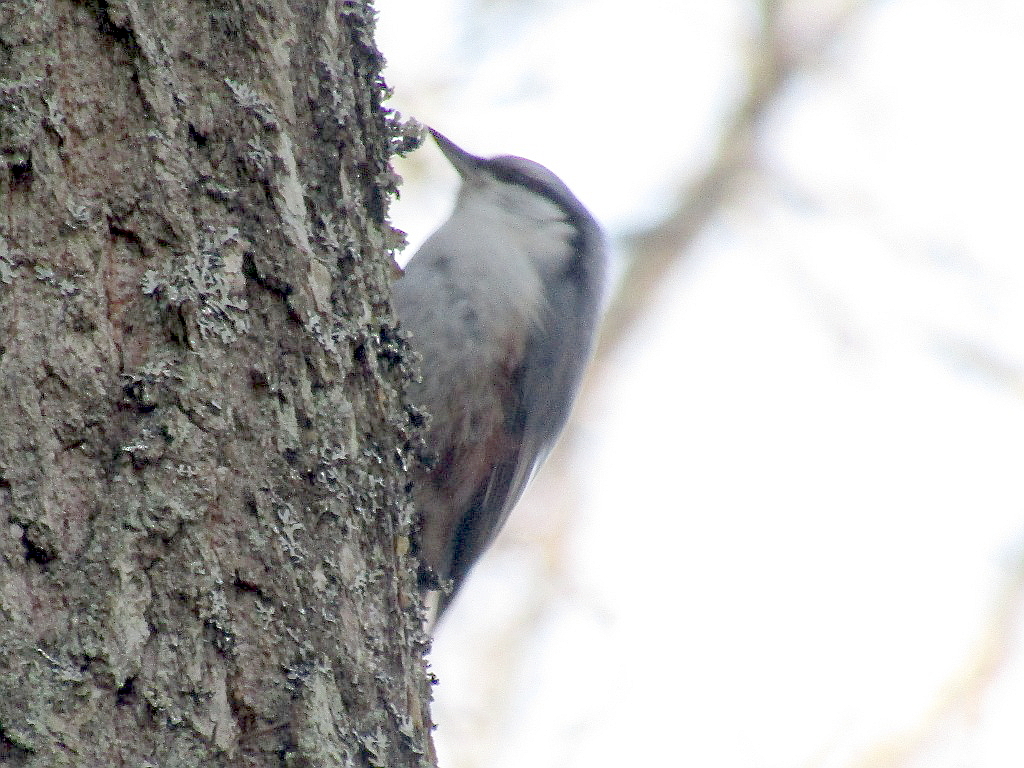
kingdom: Animalia
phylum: Chordata
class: Aves
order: Passeriformes
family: Sittidae
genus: Sitta
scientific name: Sitta europaea
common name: Eurasian nuthatch
